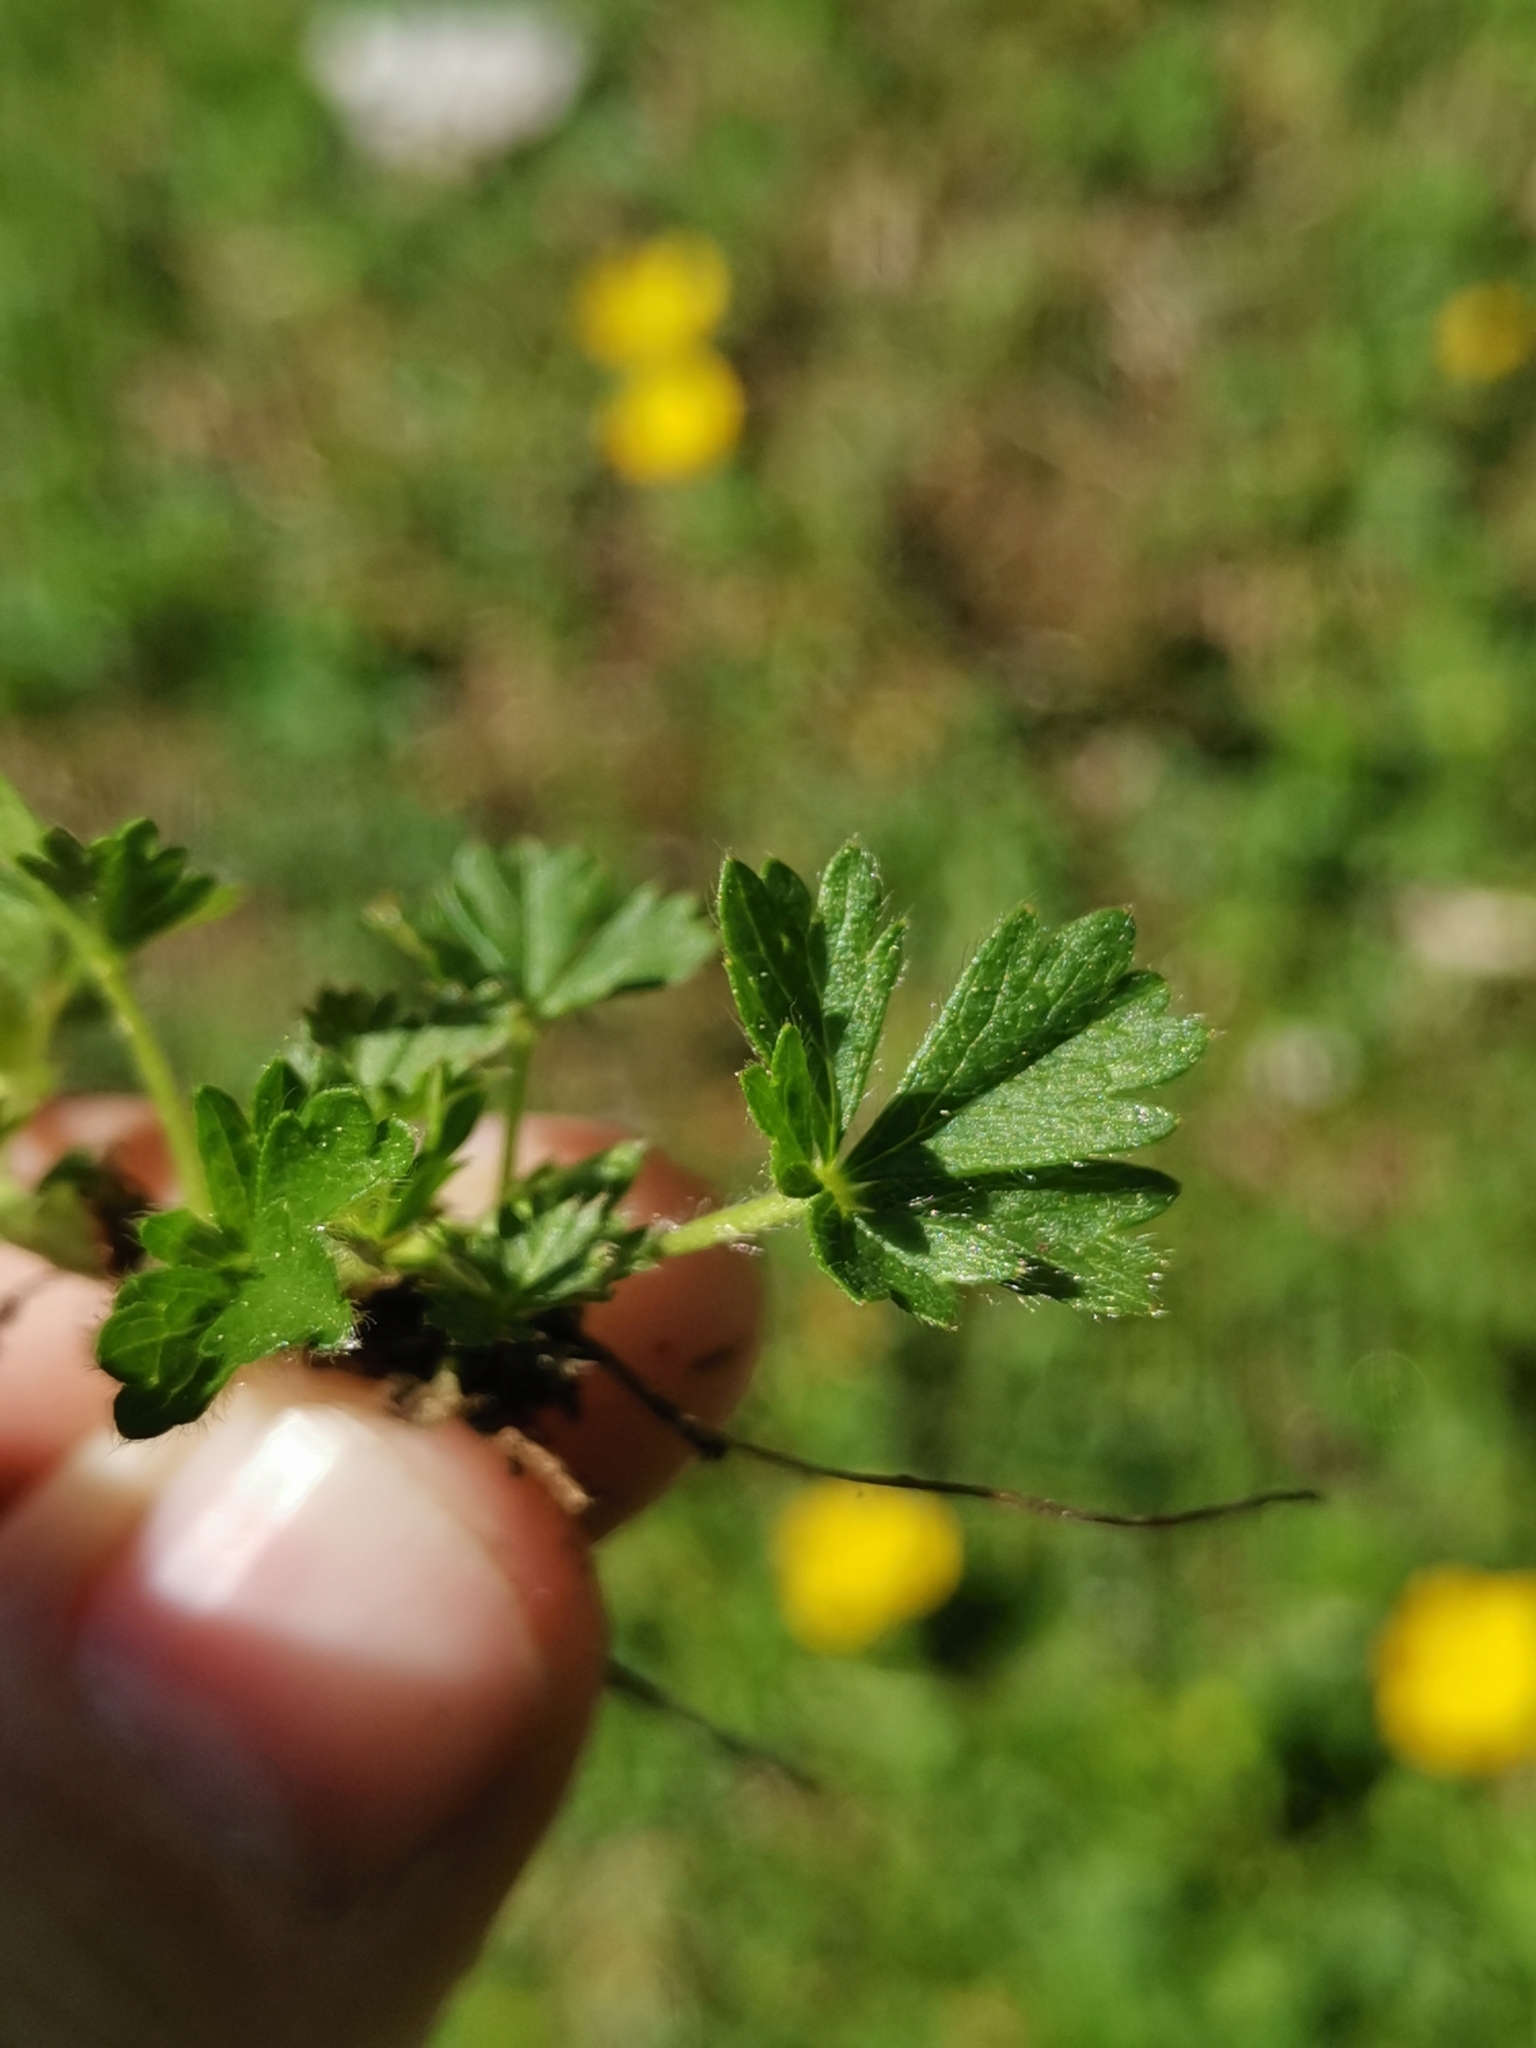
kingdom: Plantae
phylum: Tracheophyta
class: Magnoliopsida
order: Rosales
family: Rosaceae
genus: Potentilla
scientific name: Potentilla aurea
